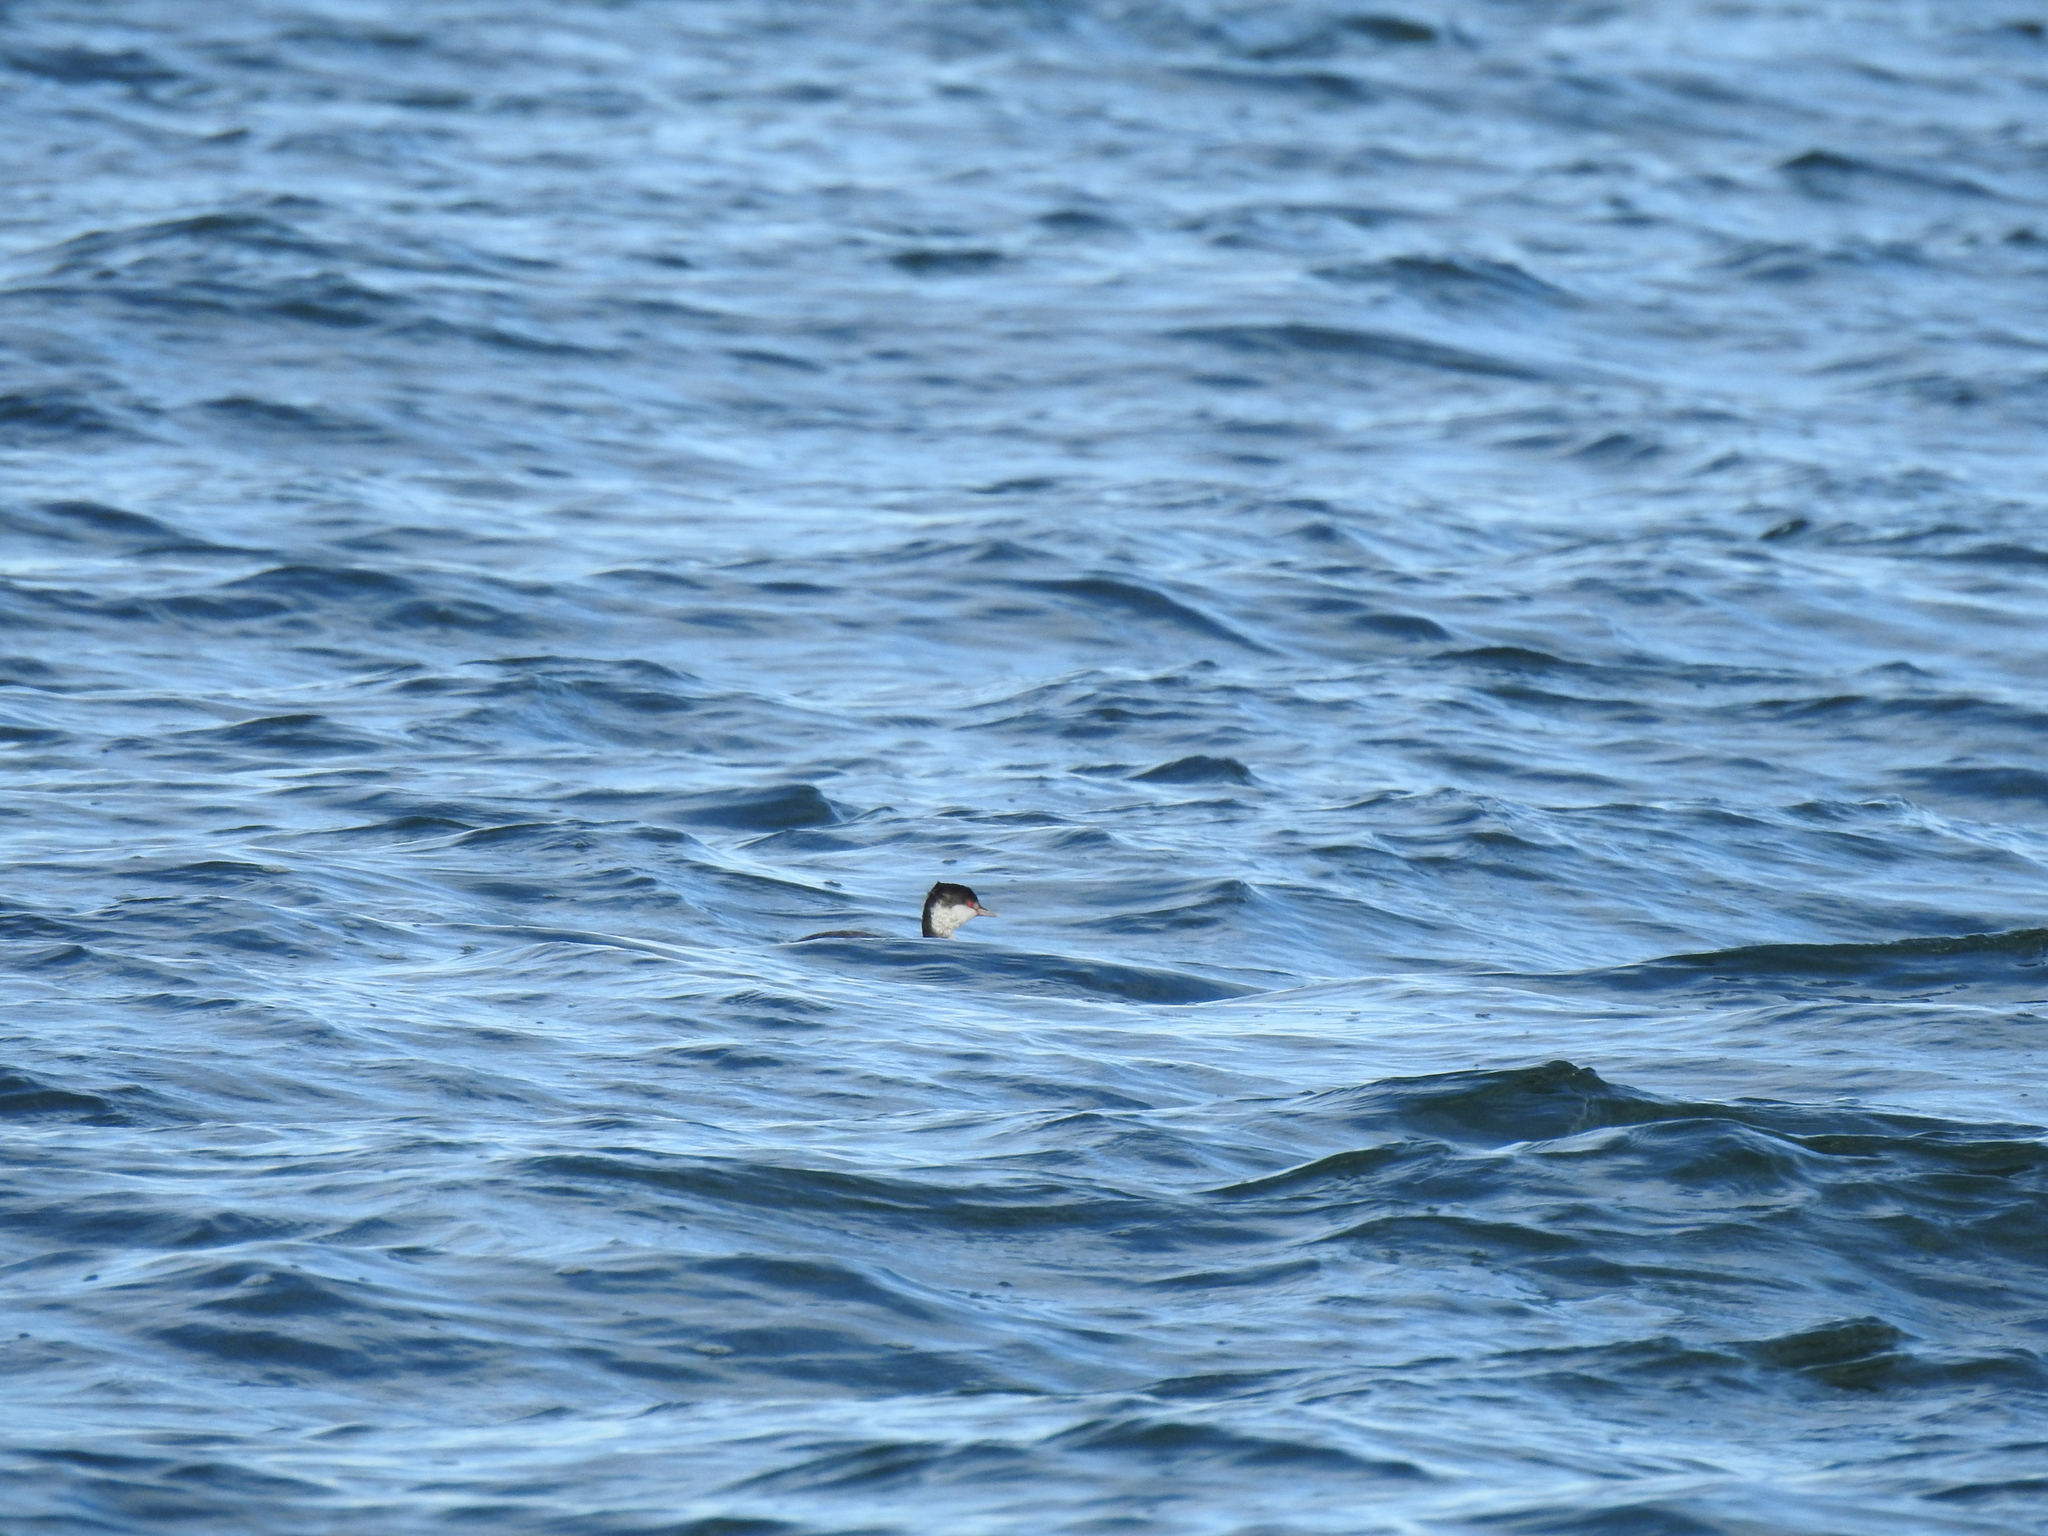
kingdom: Animalia
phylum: Chordata
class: Aves
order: Podicipediformes
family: Podicipedidae
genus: Podiceps
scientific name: Podiceps auritus
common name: Horned grebe
